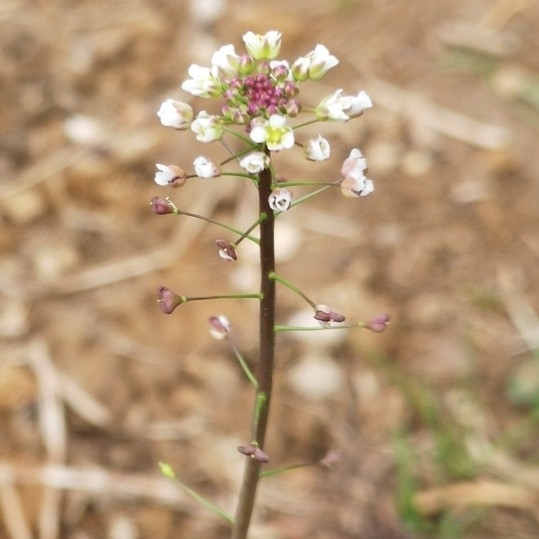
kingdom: Plantae
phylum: Tracheophyta
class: Magnoliopsida
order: Brassicales
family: Brassicaceae
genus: Capsella
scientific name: Capsella bursa-pastoris
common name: Shepherd's purse
